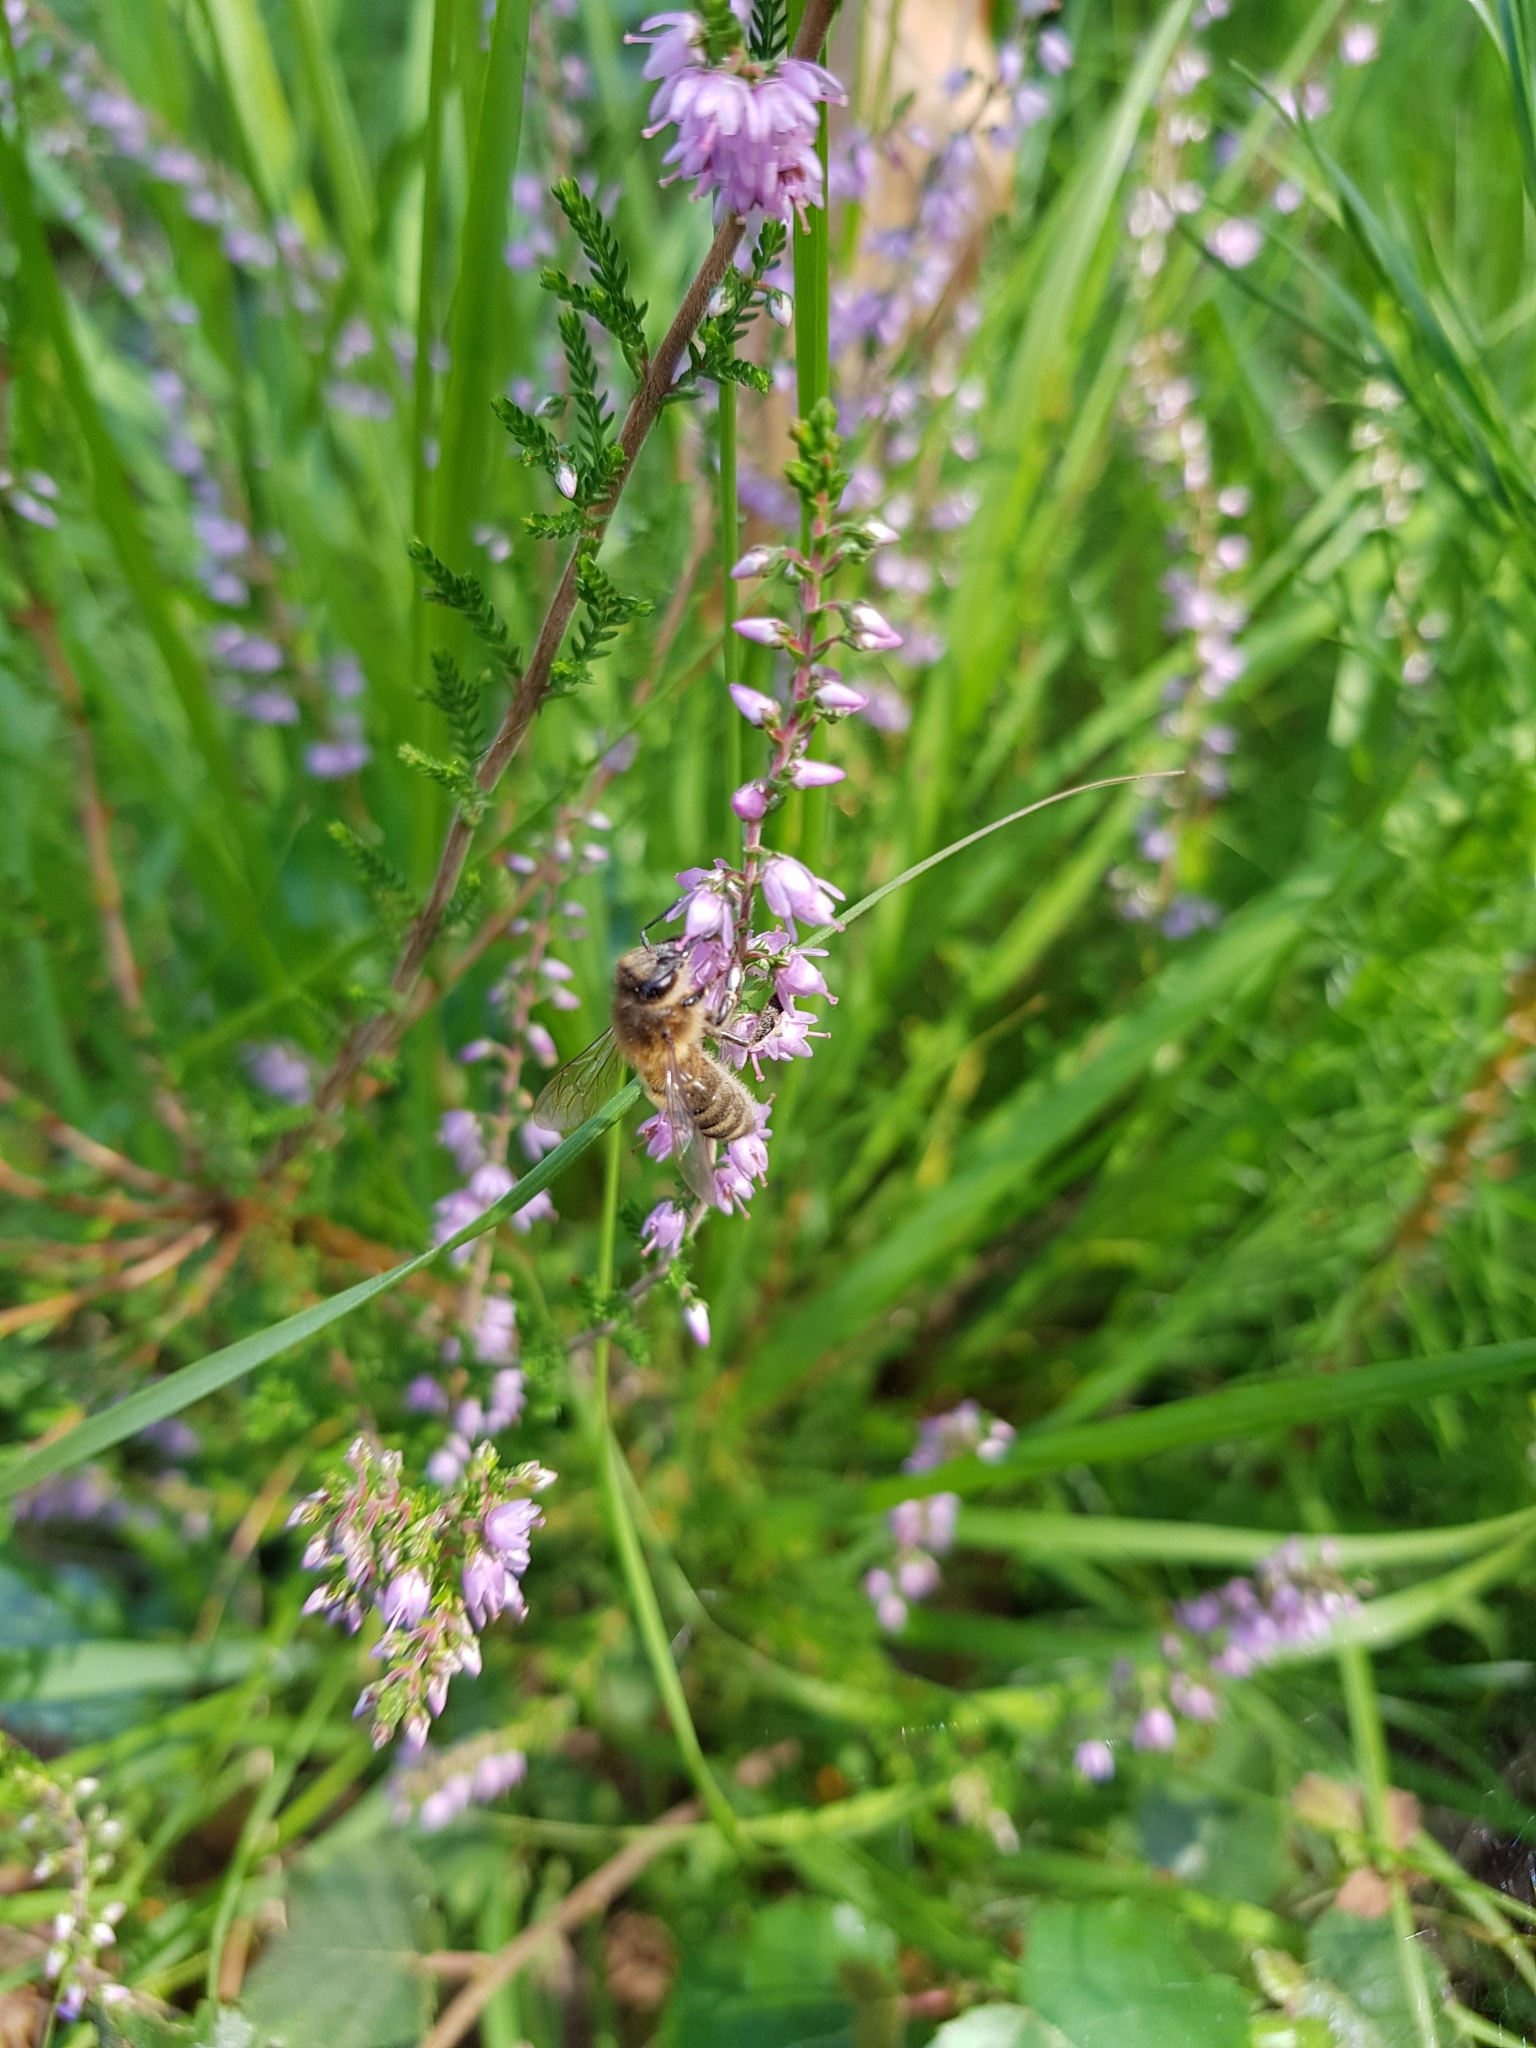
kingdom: Animalia
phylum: Arthropoda
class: Insecta
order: Hymenoptera
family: Apidae
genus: Apis
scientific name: Apis mellifera
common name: Honey bee
